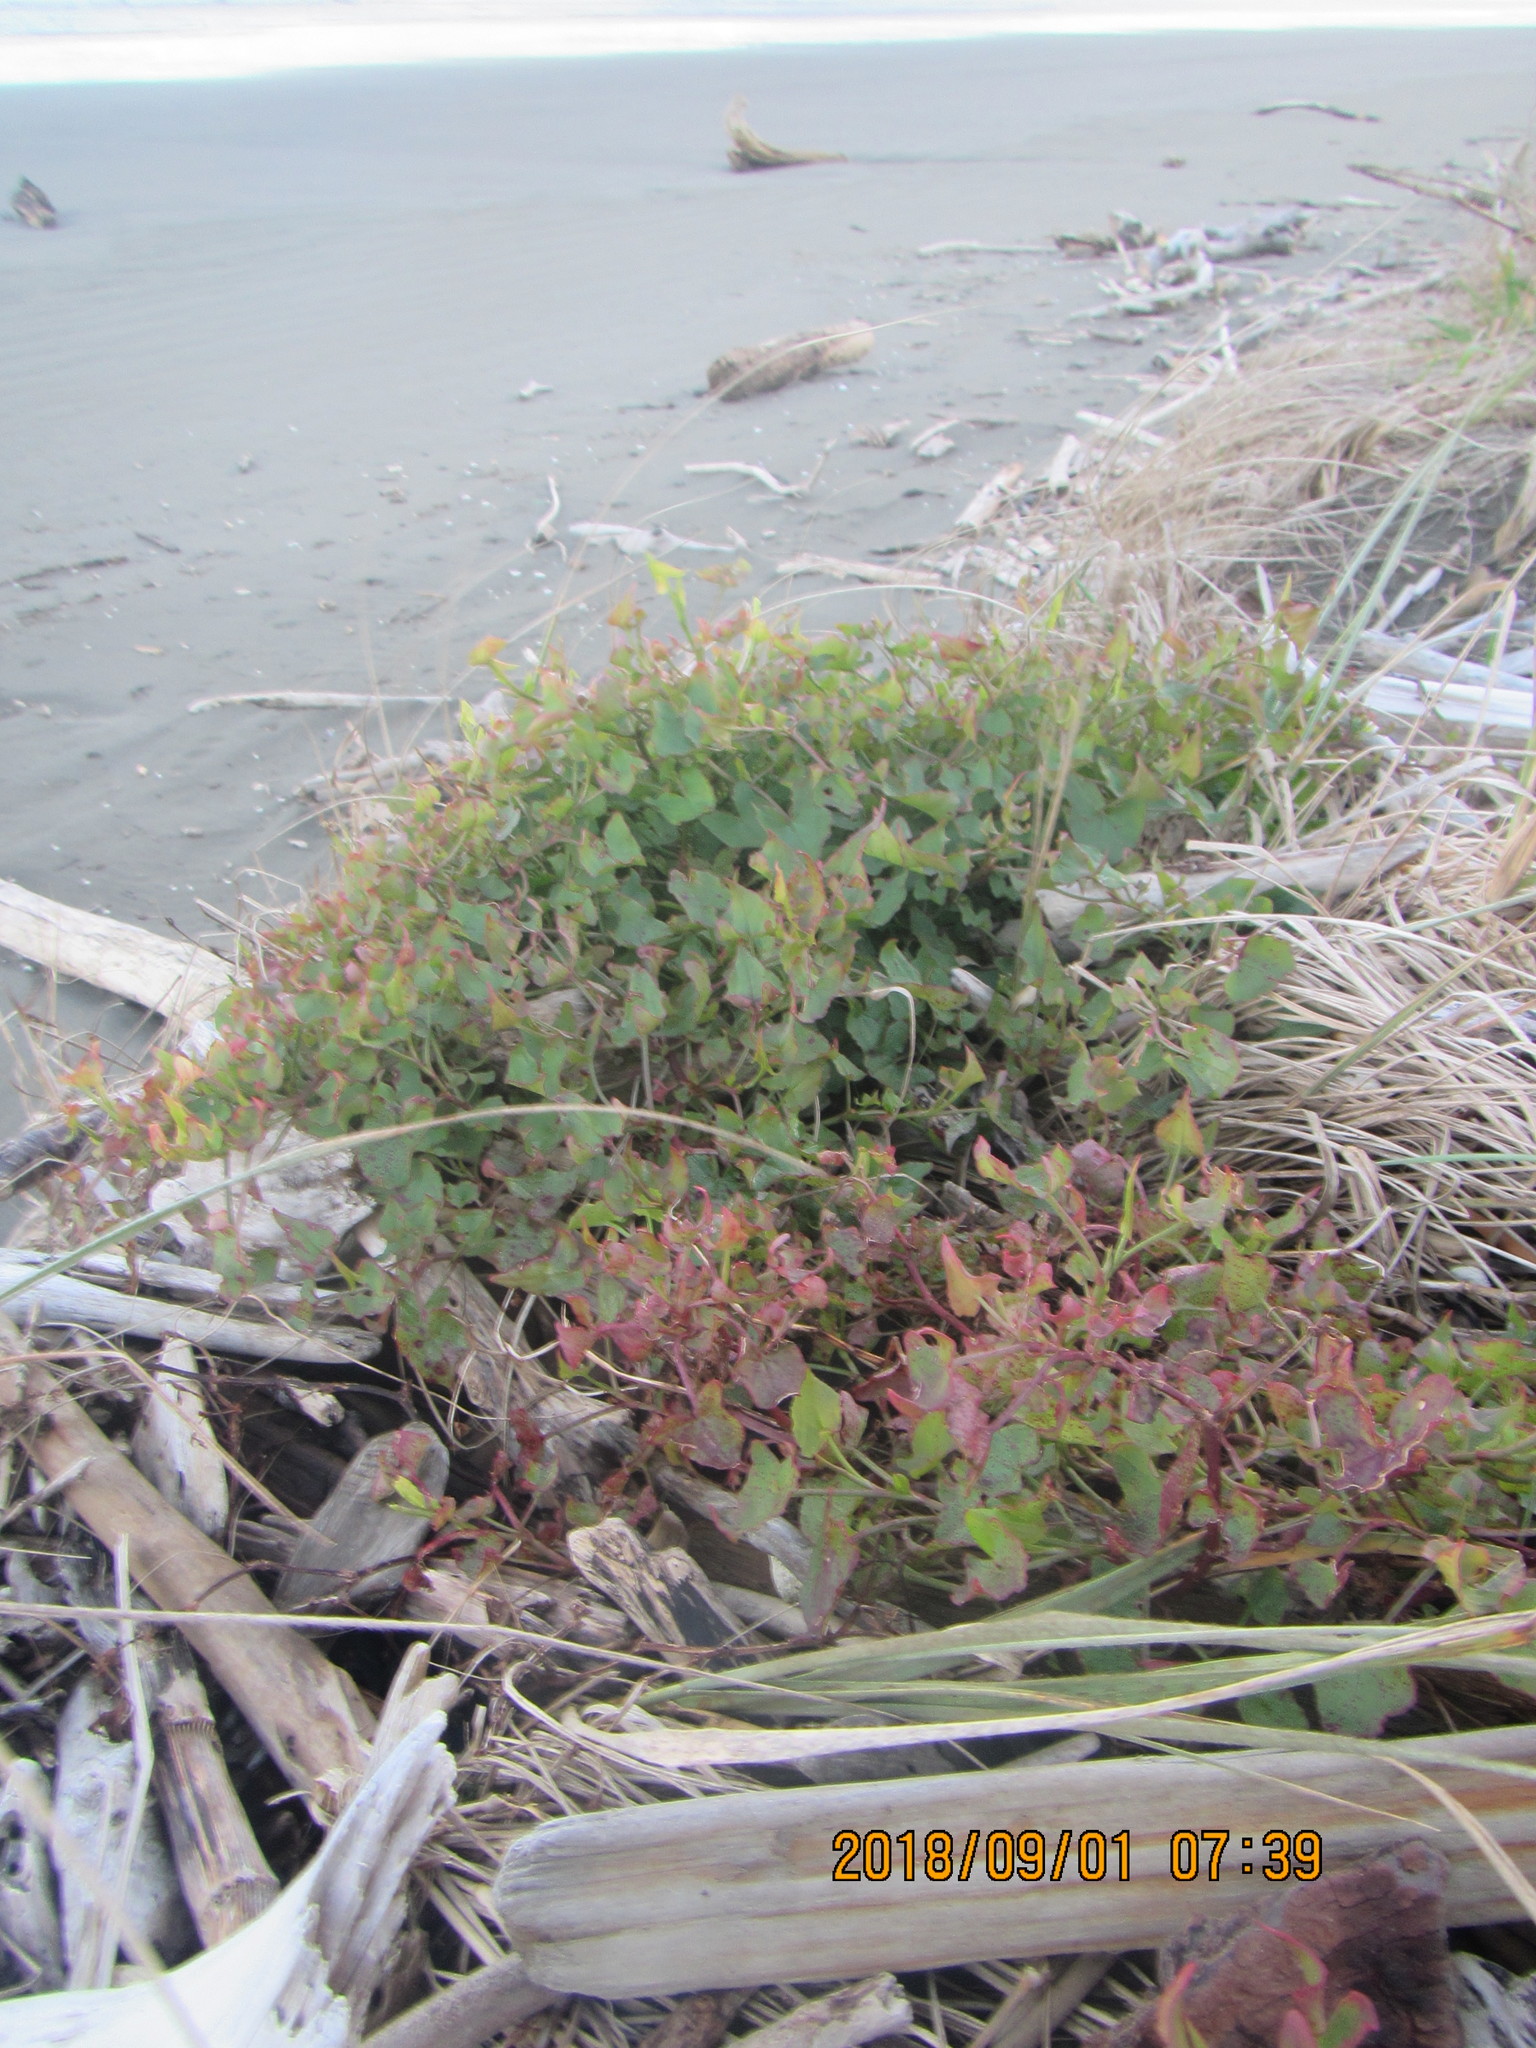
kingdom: Plantae
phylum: Tracheophyta
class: Magnoliopsida
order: Caryophyllales
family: Polygonaceae
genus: Rumex
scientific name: Rumex sagittatus
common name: Climbing dock
